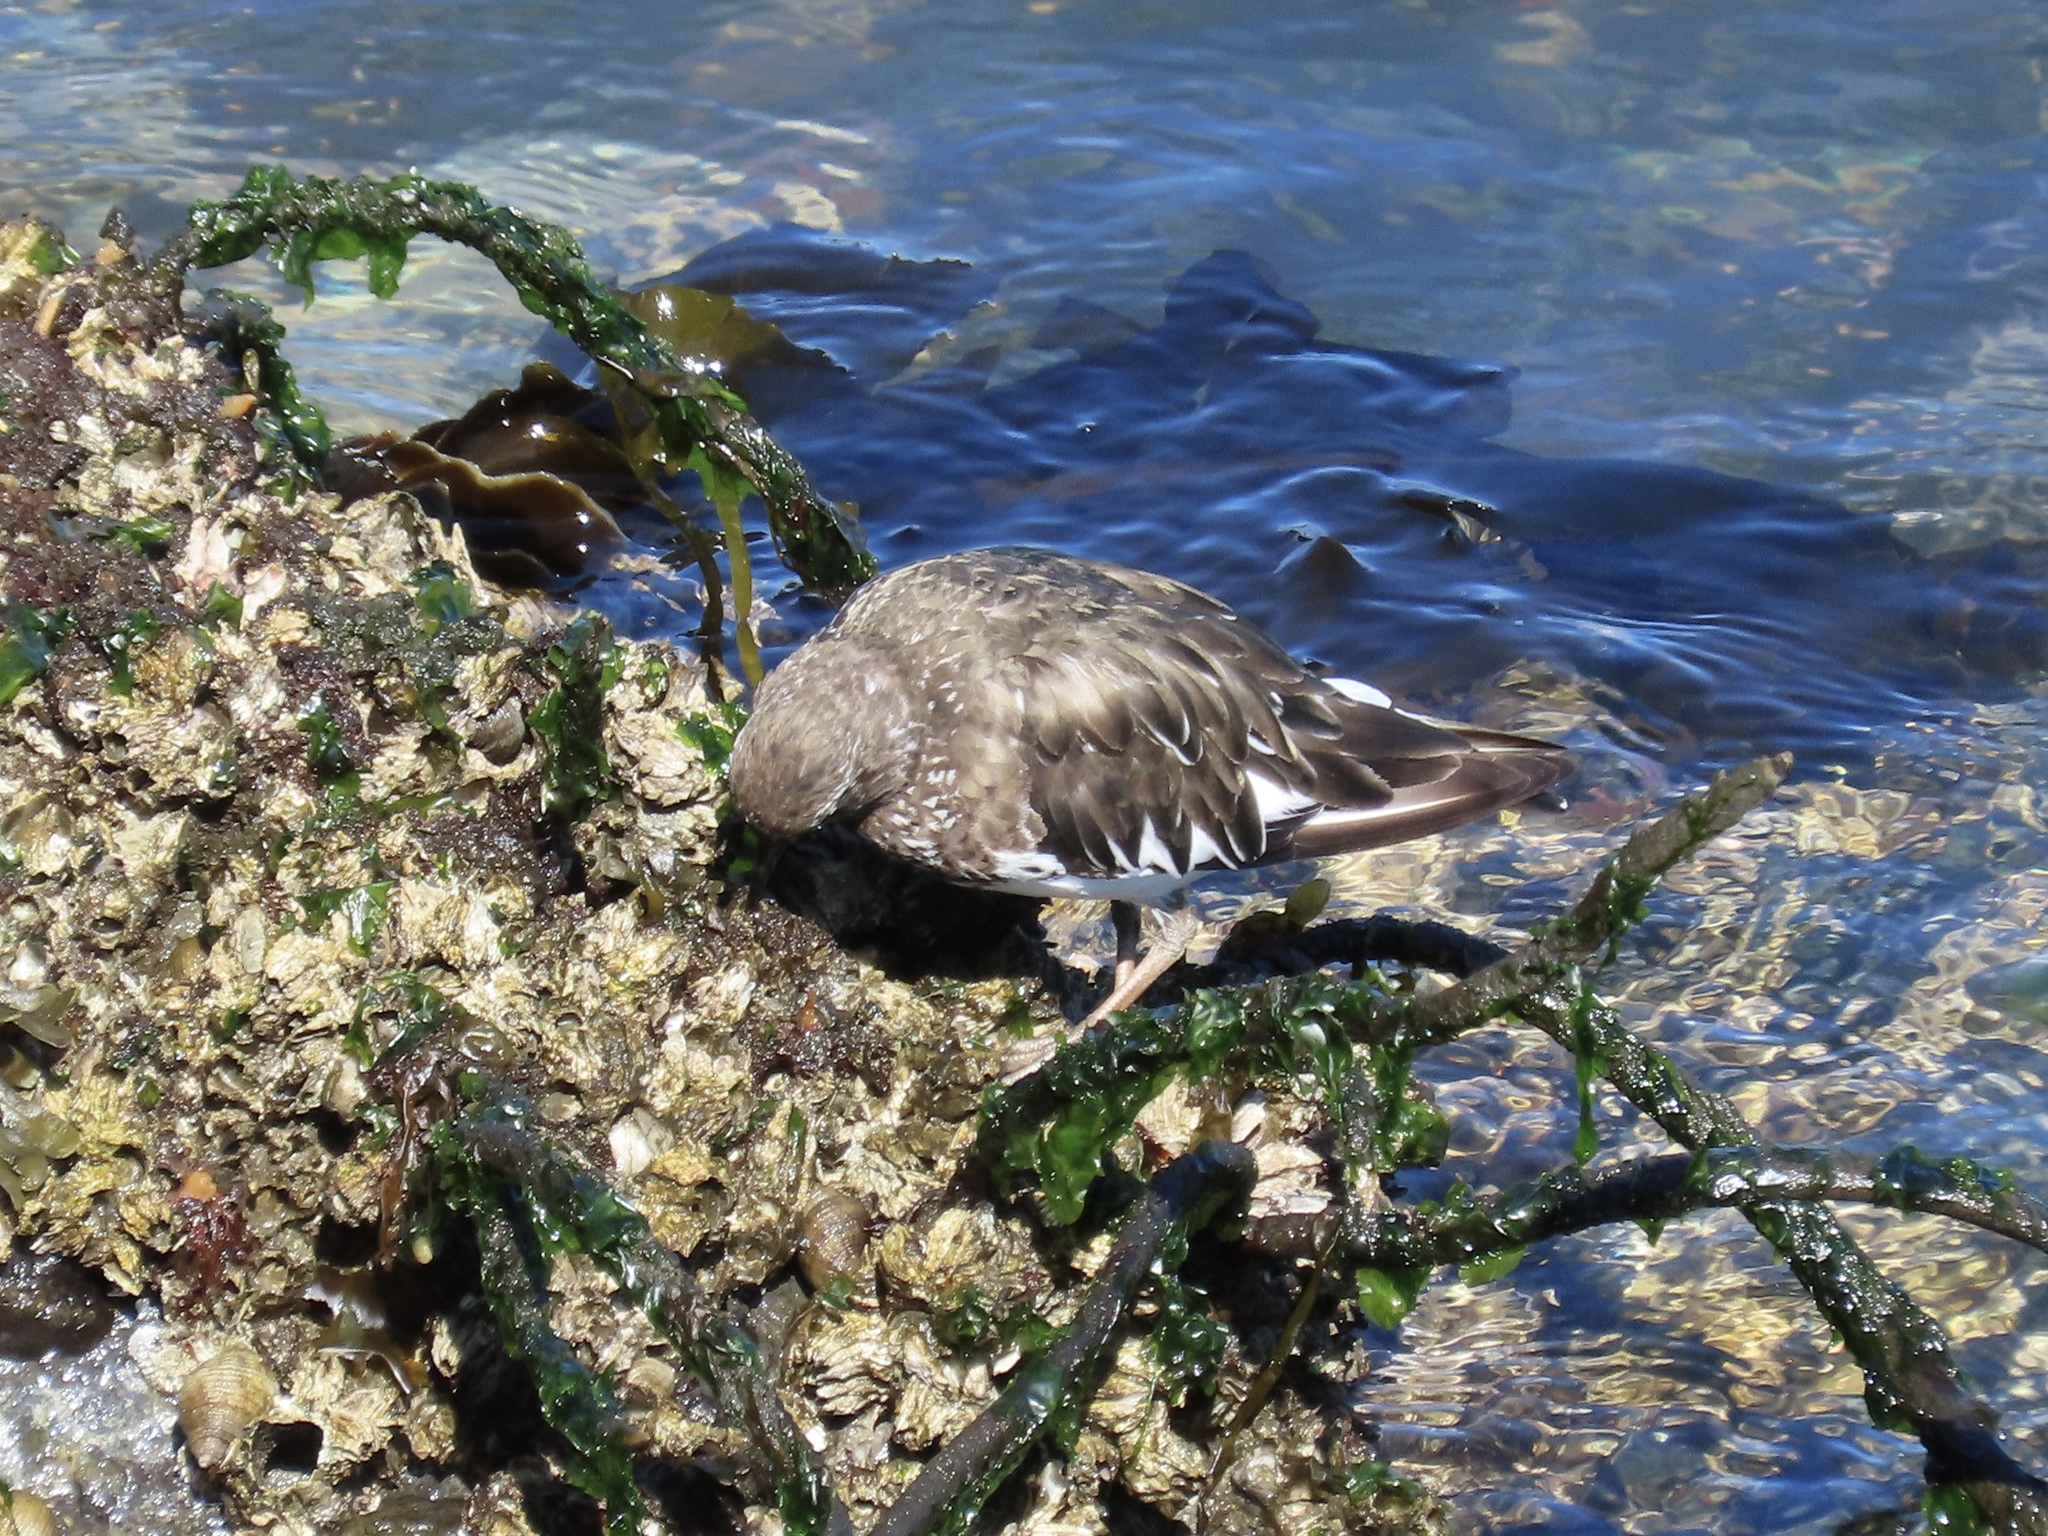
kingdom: Animalia
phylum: Chordata
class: Aves
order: Charadriiformes
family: Scolopacidae
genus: Arenaria
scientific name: Arenaria melanocephala
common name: Black turnstone
